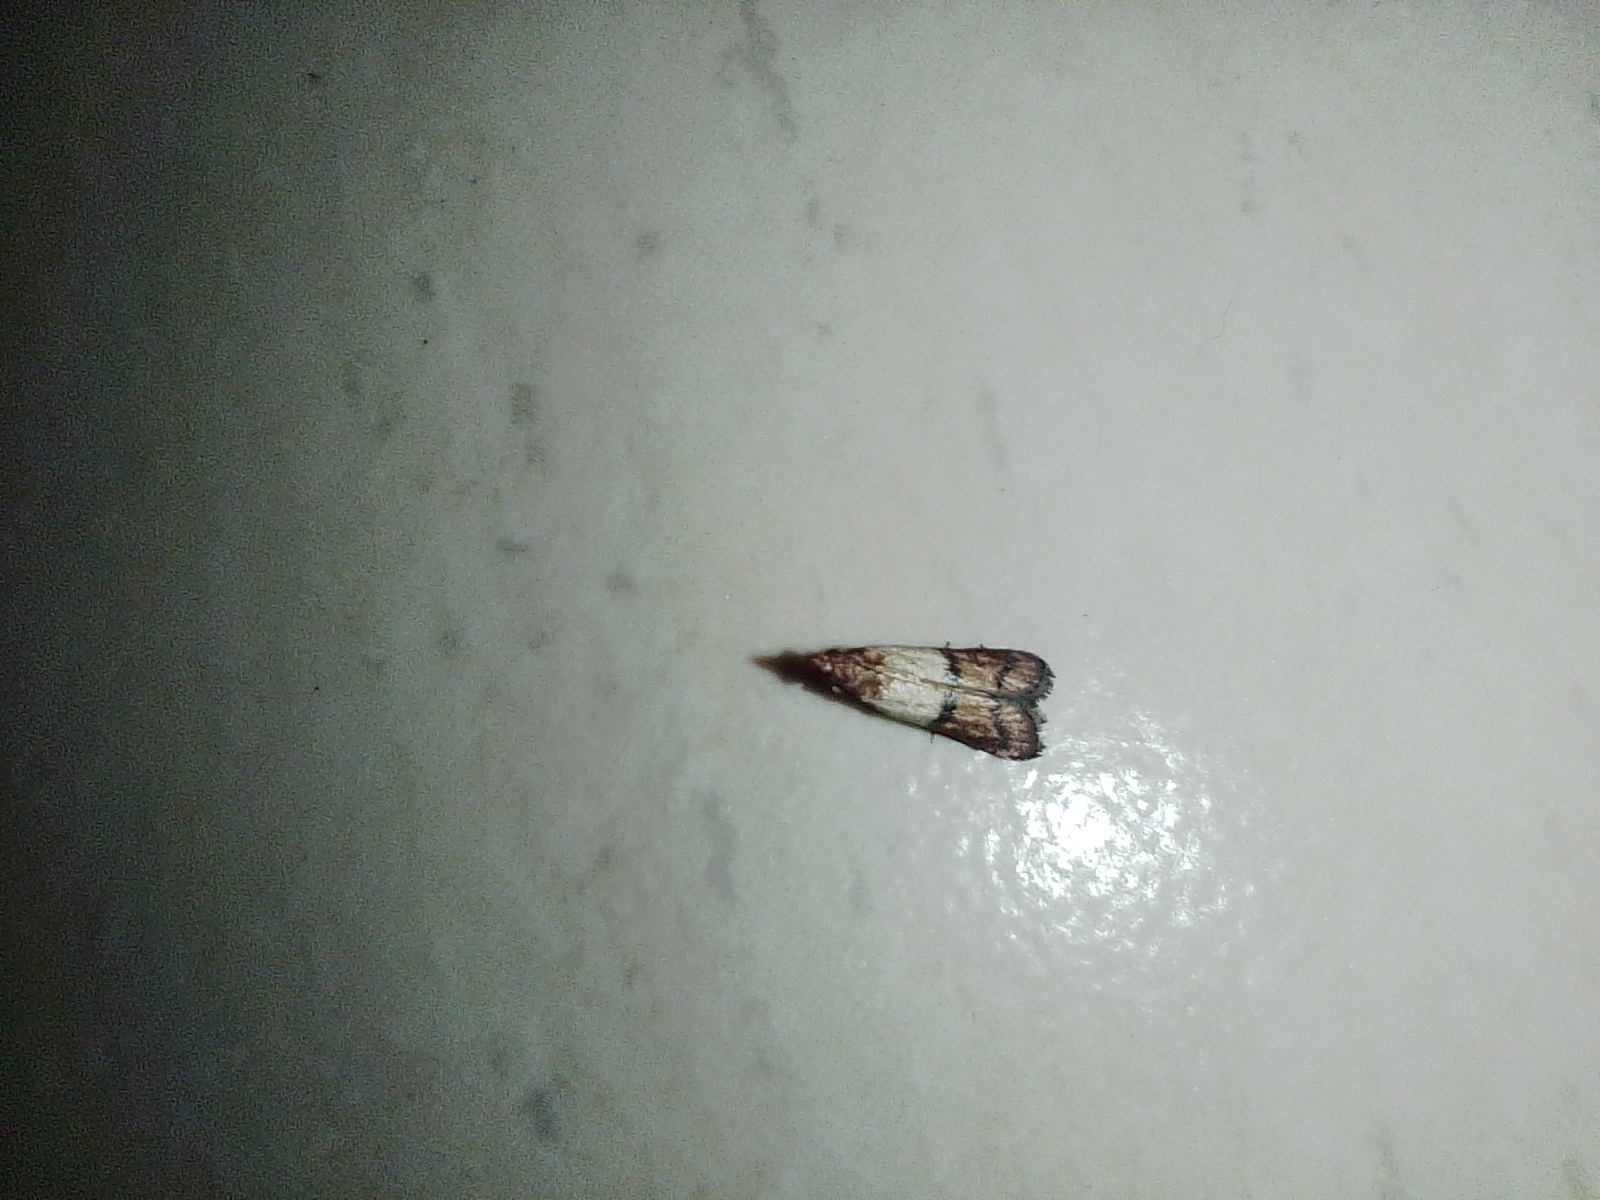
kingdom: Animalia
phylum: Arthropoda
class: Insecta
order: Lepidoptera
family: Pyralidae
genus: Plodia
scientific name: Plodia interpunctella
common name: Indian meal moth
